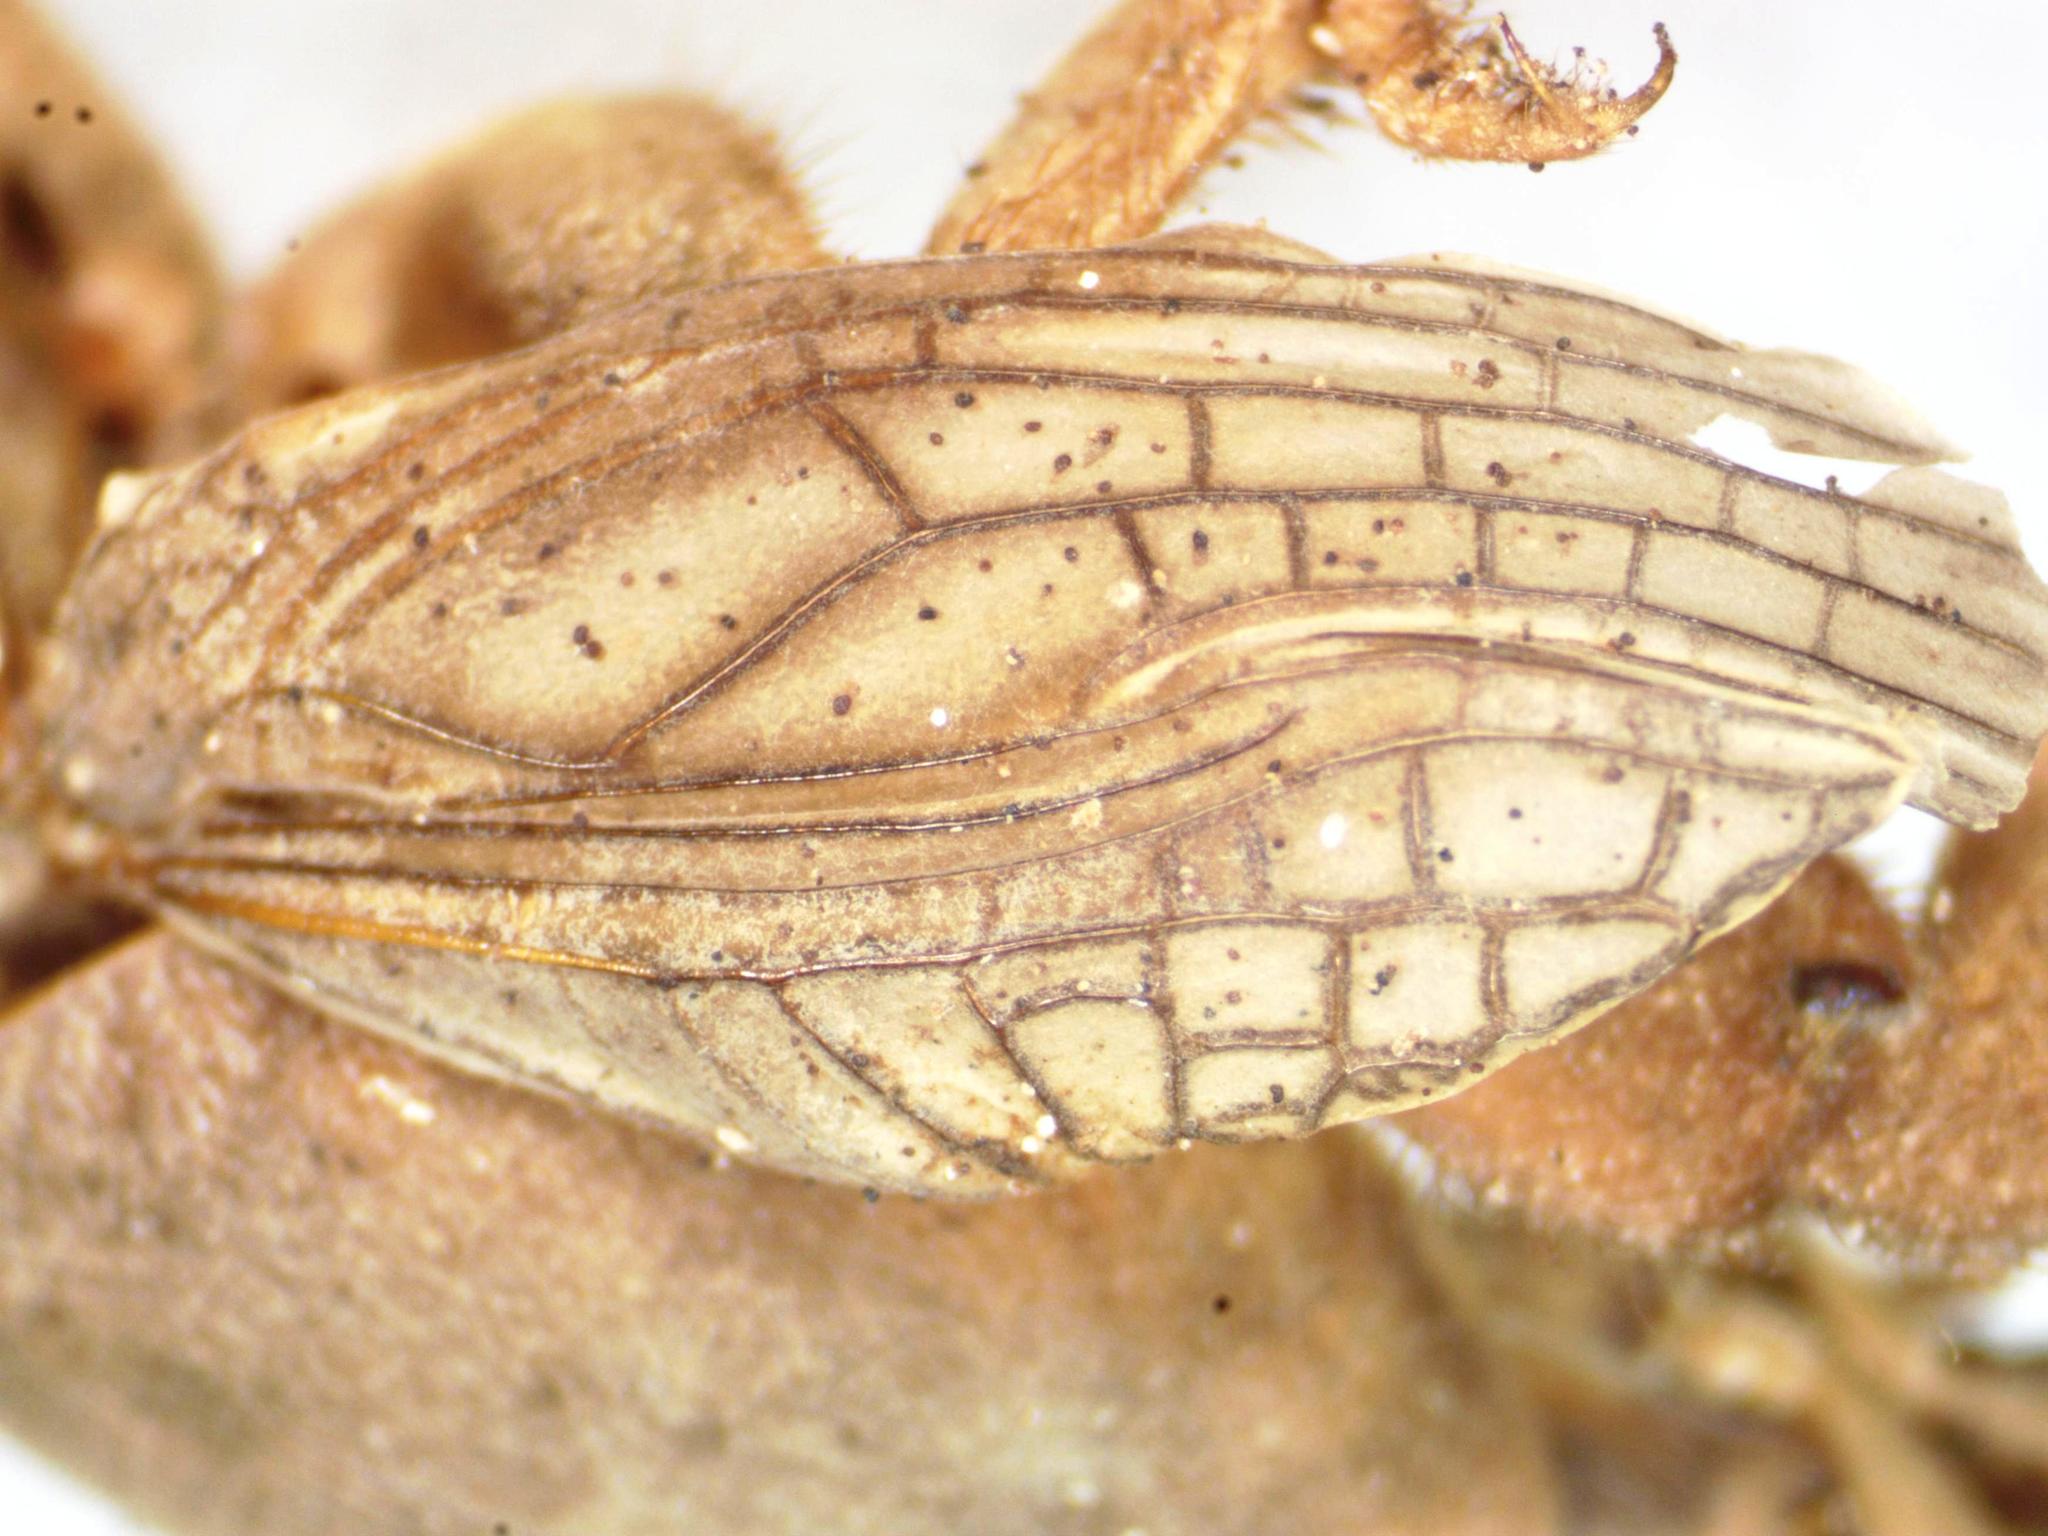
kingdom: Animalia
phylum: Arthropoda
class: Insecta
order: Orthoptera
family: Gryllotalpidae
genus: Neocurtilla
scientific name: Neocurtilla hexadactyla
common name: Northern mole cricket
